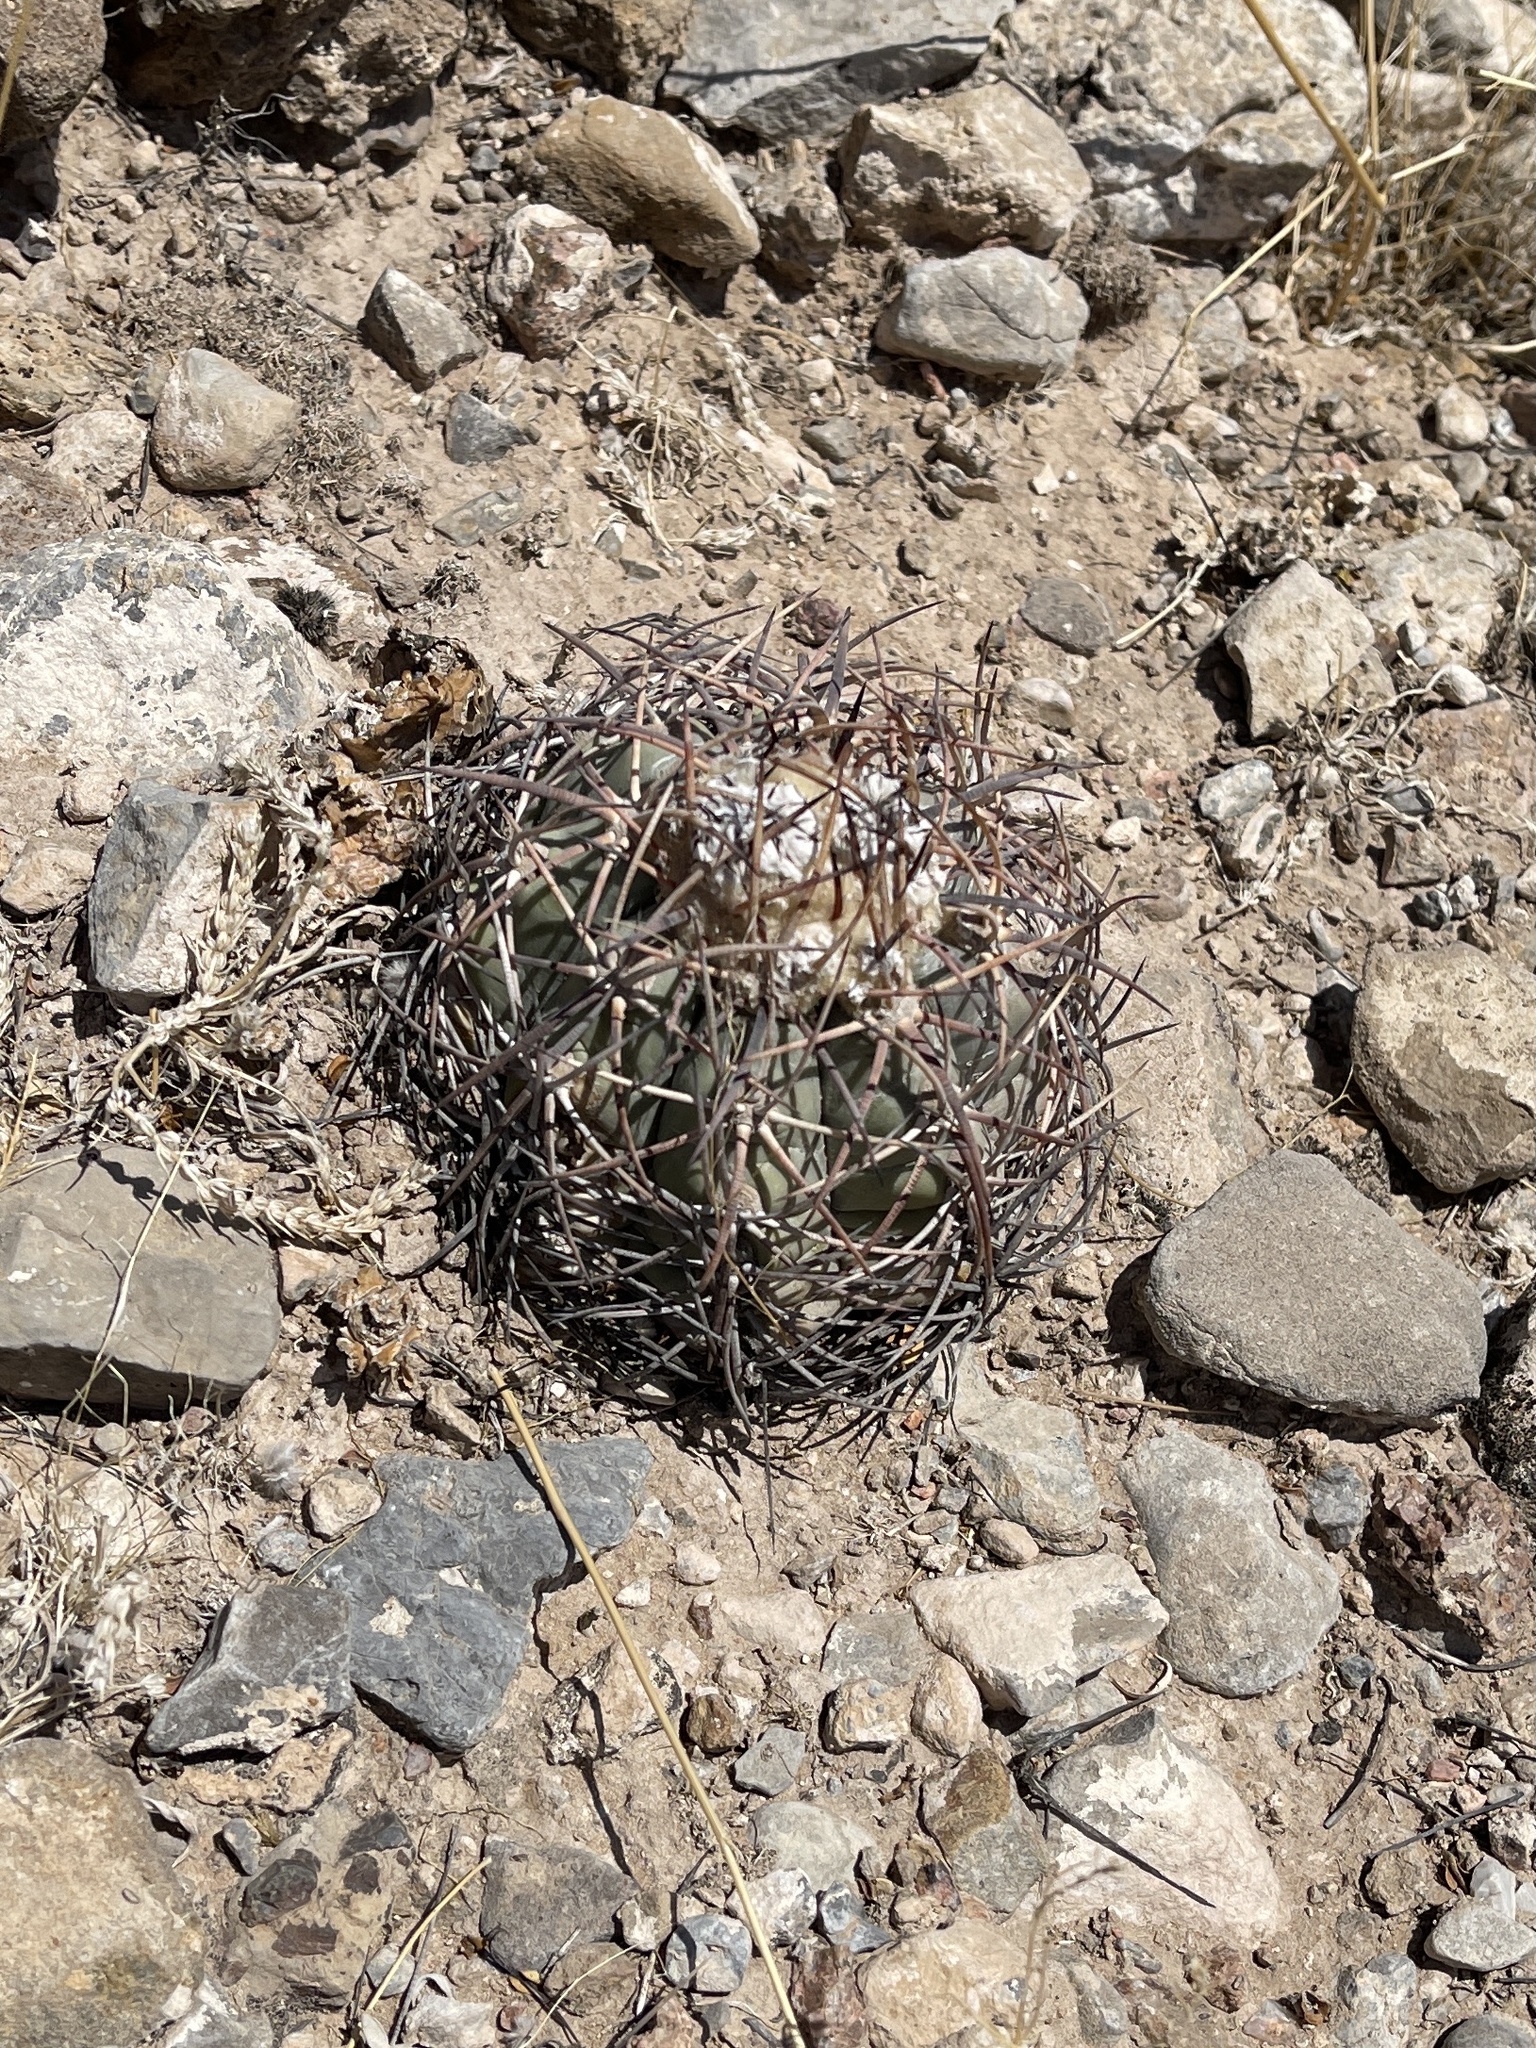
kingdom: Plantae
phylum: Tracheophyta
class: Magnoliopsida
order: Caryophyllales
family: Cactaceae
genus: Echinocactus
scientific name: Echinocactus horizonthalonius
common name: Devilshead
